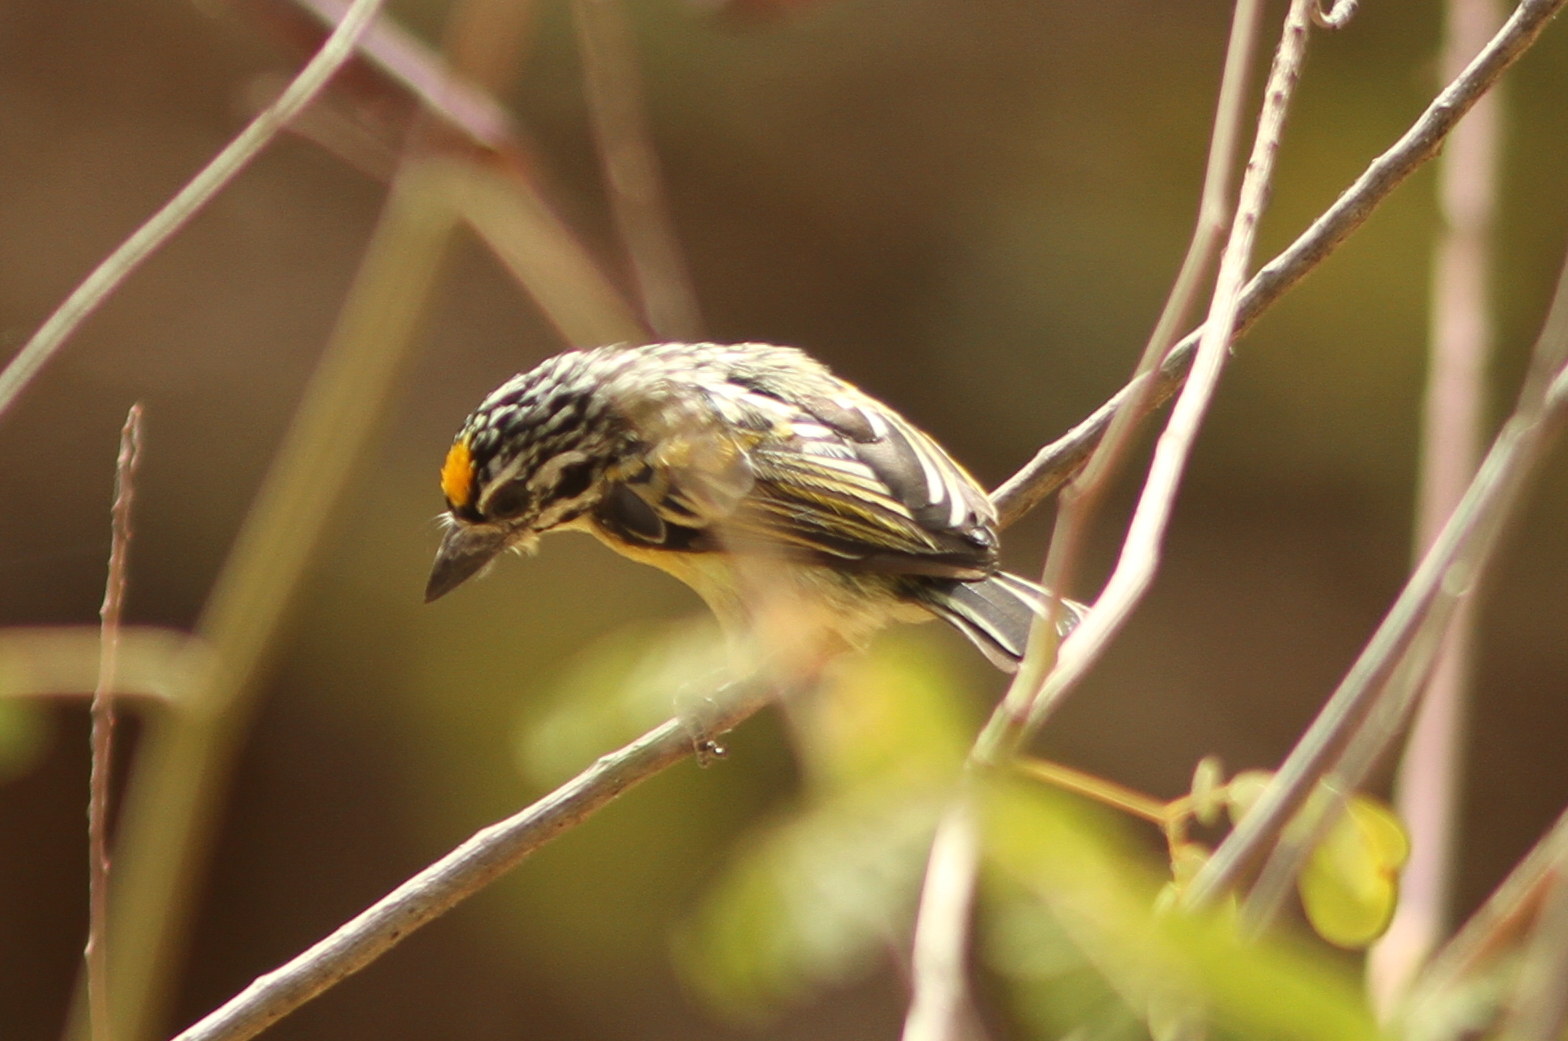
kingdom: Animalia
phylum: Chordata
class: Aves
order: Piciformes
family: Lybiidae
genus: Pogoniulus
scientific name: Pogoniulus chrysoconus
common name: Yellow-fronted tinkerbird
